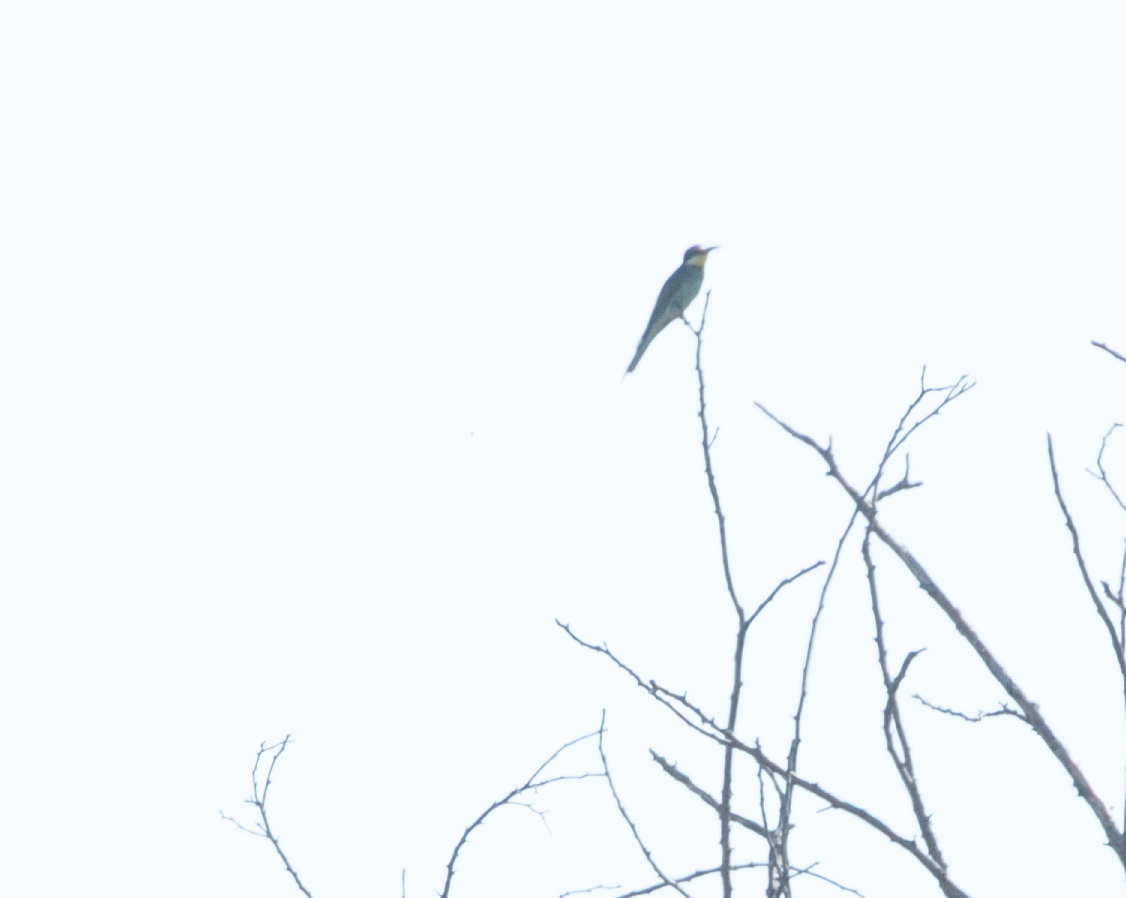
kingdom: Animalia
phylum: Chordata
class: Aves
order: Coraciiformes
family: Meropidae
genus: Merops
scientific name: Merops apiaster
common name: European bee-eater
